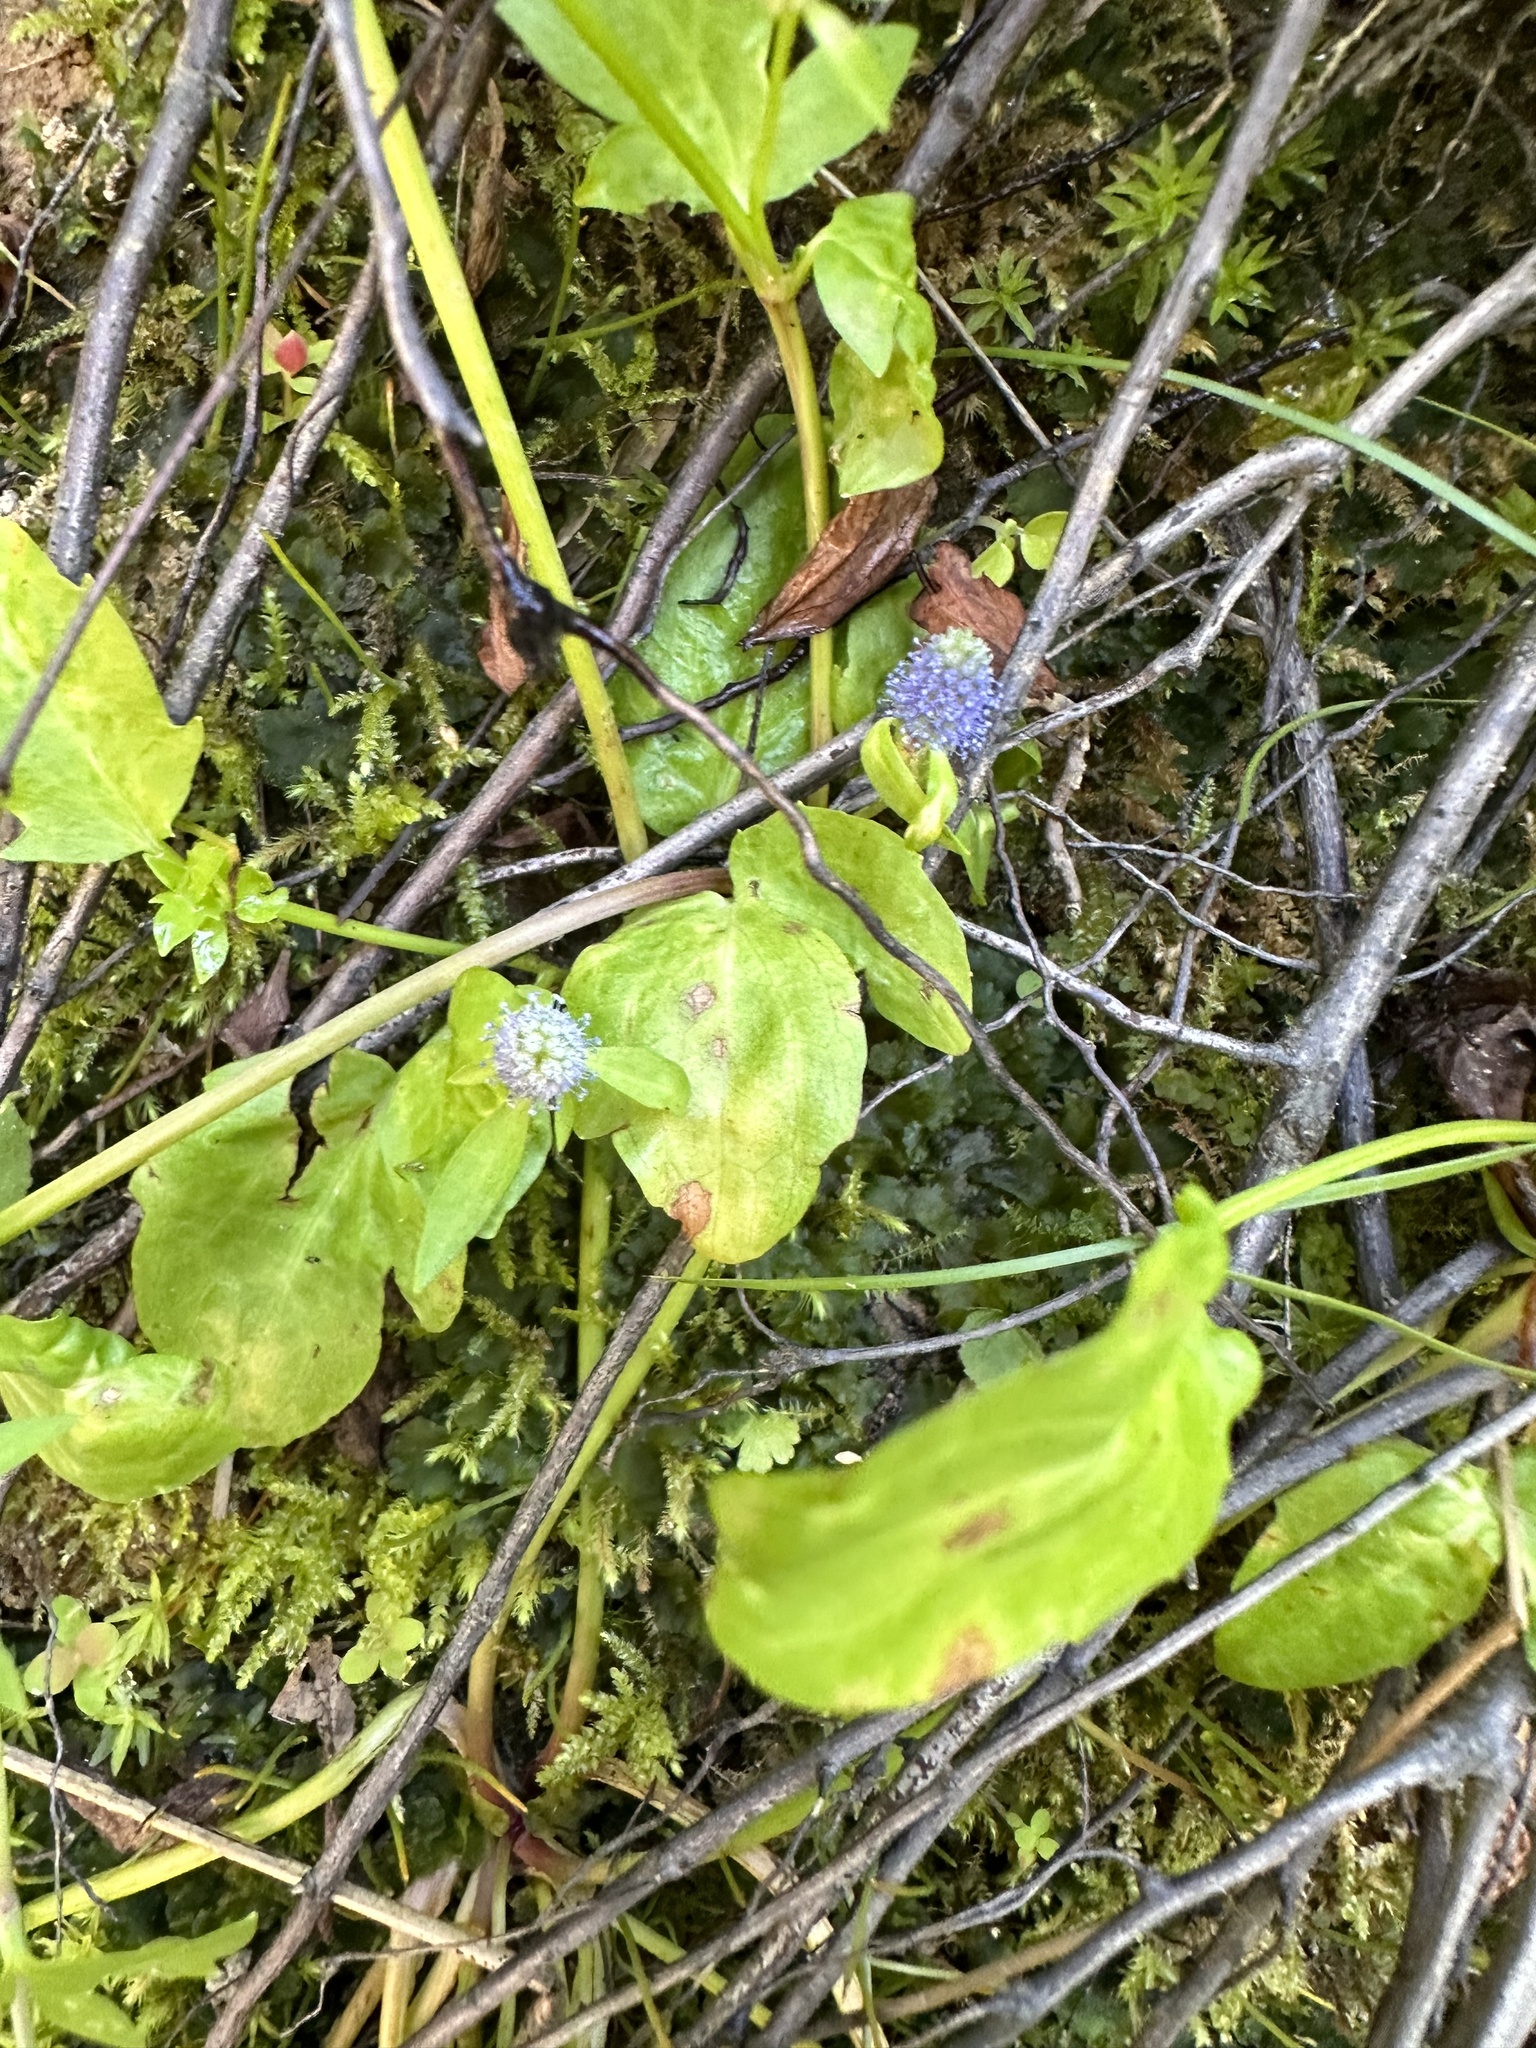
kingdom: Plantae
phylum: Tracheophyta
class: Magnoliopsida
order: Apiales
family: Apiaceae
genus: Eryngium
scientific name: Eryngium prostratum
